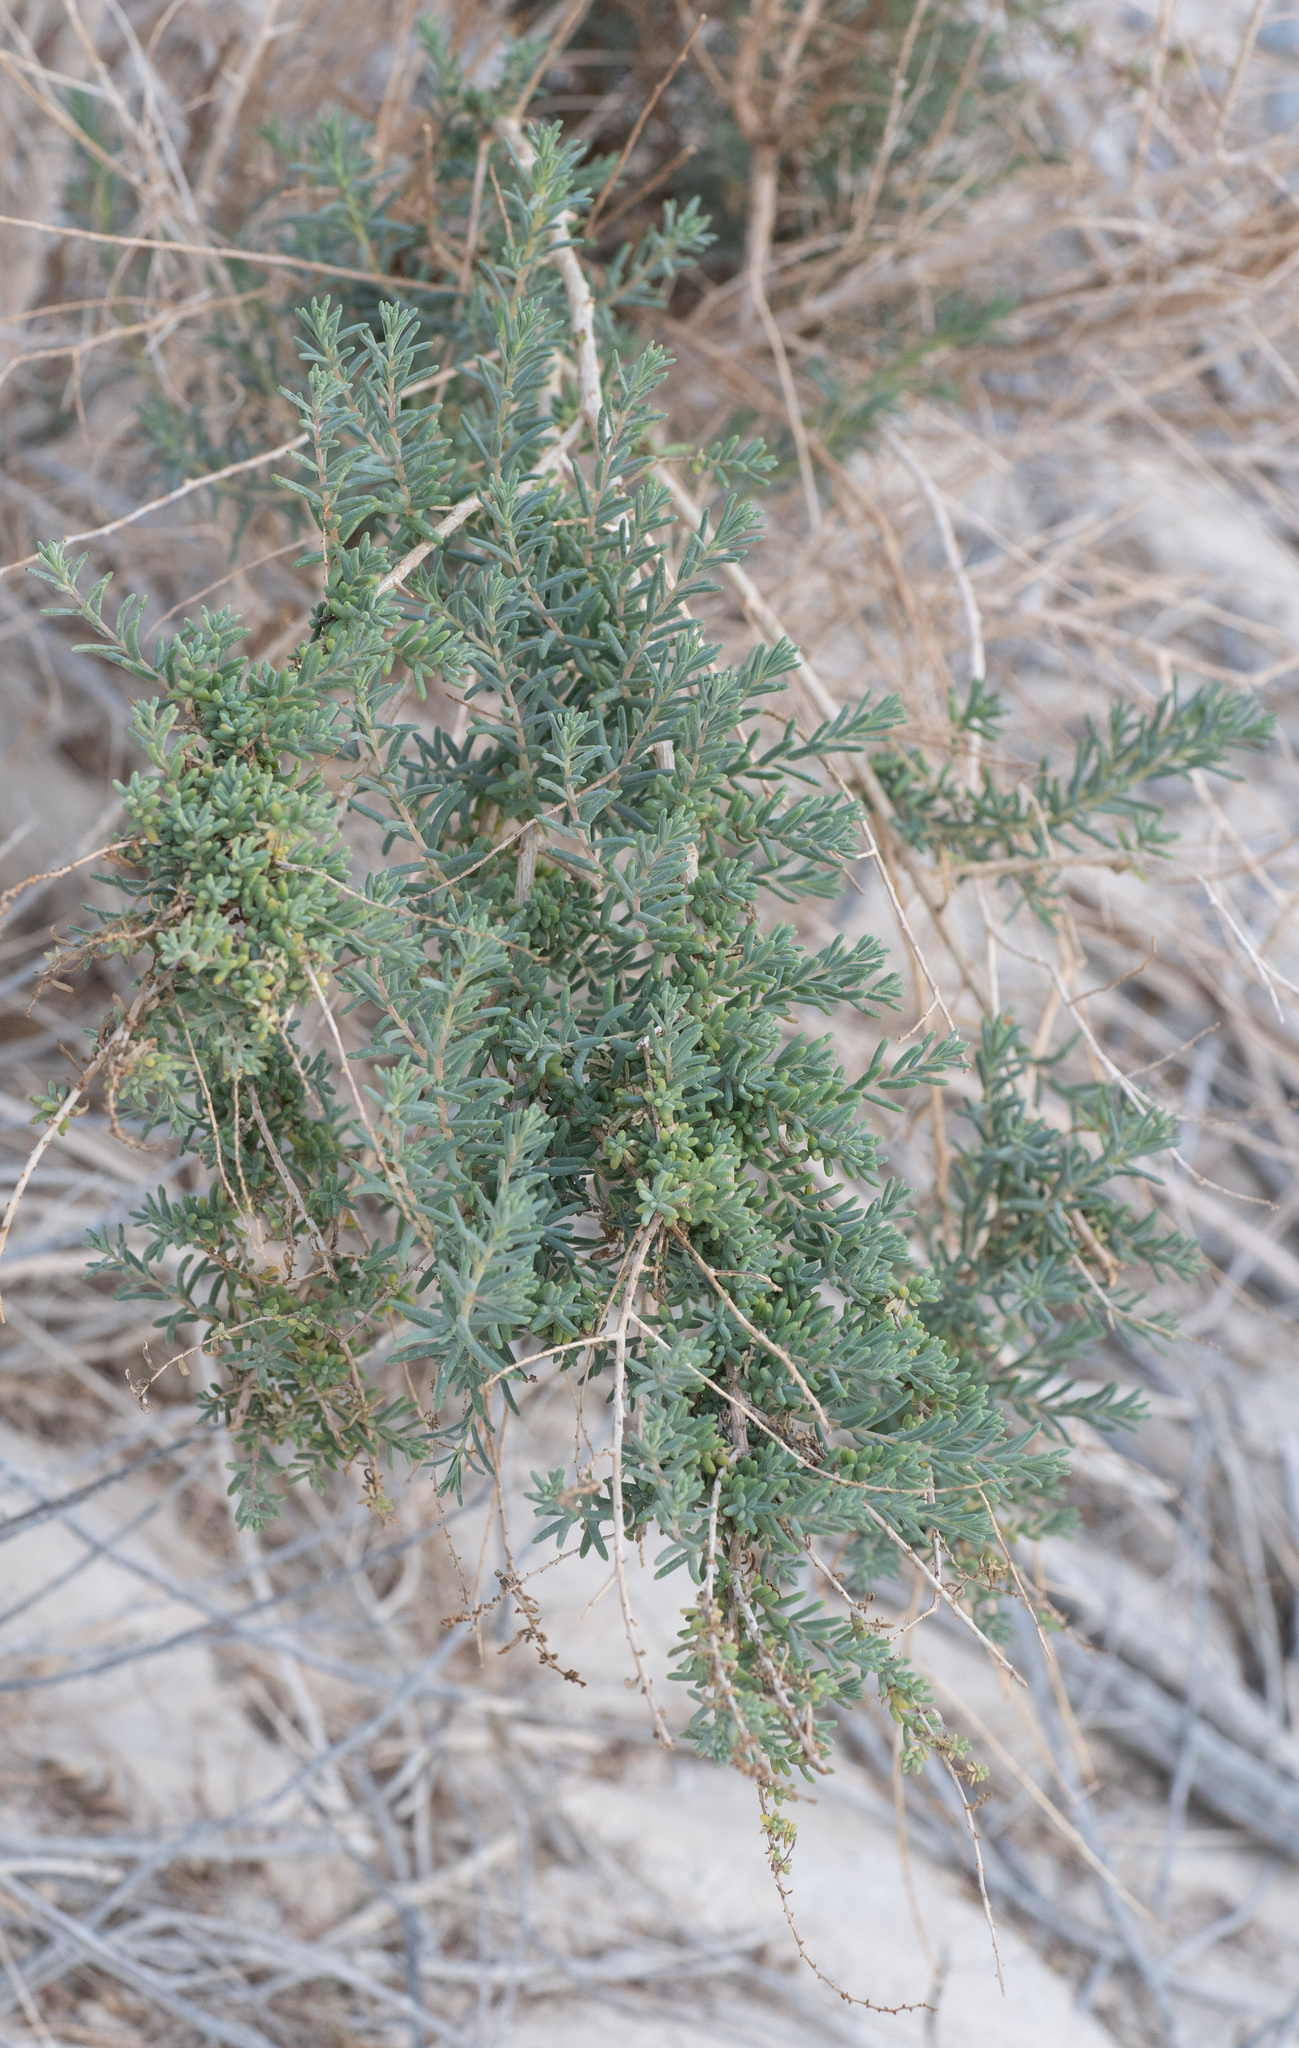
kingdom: Plantae
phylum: Tracheophyta
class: Magnoliopsida
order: Caryophyllales
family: Amaranthaceae
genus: Suaeda
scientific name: Suaeda nigra
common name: Bush seepweed
